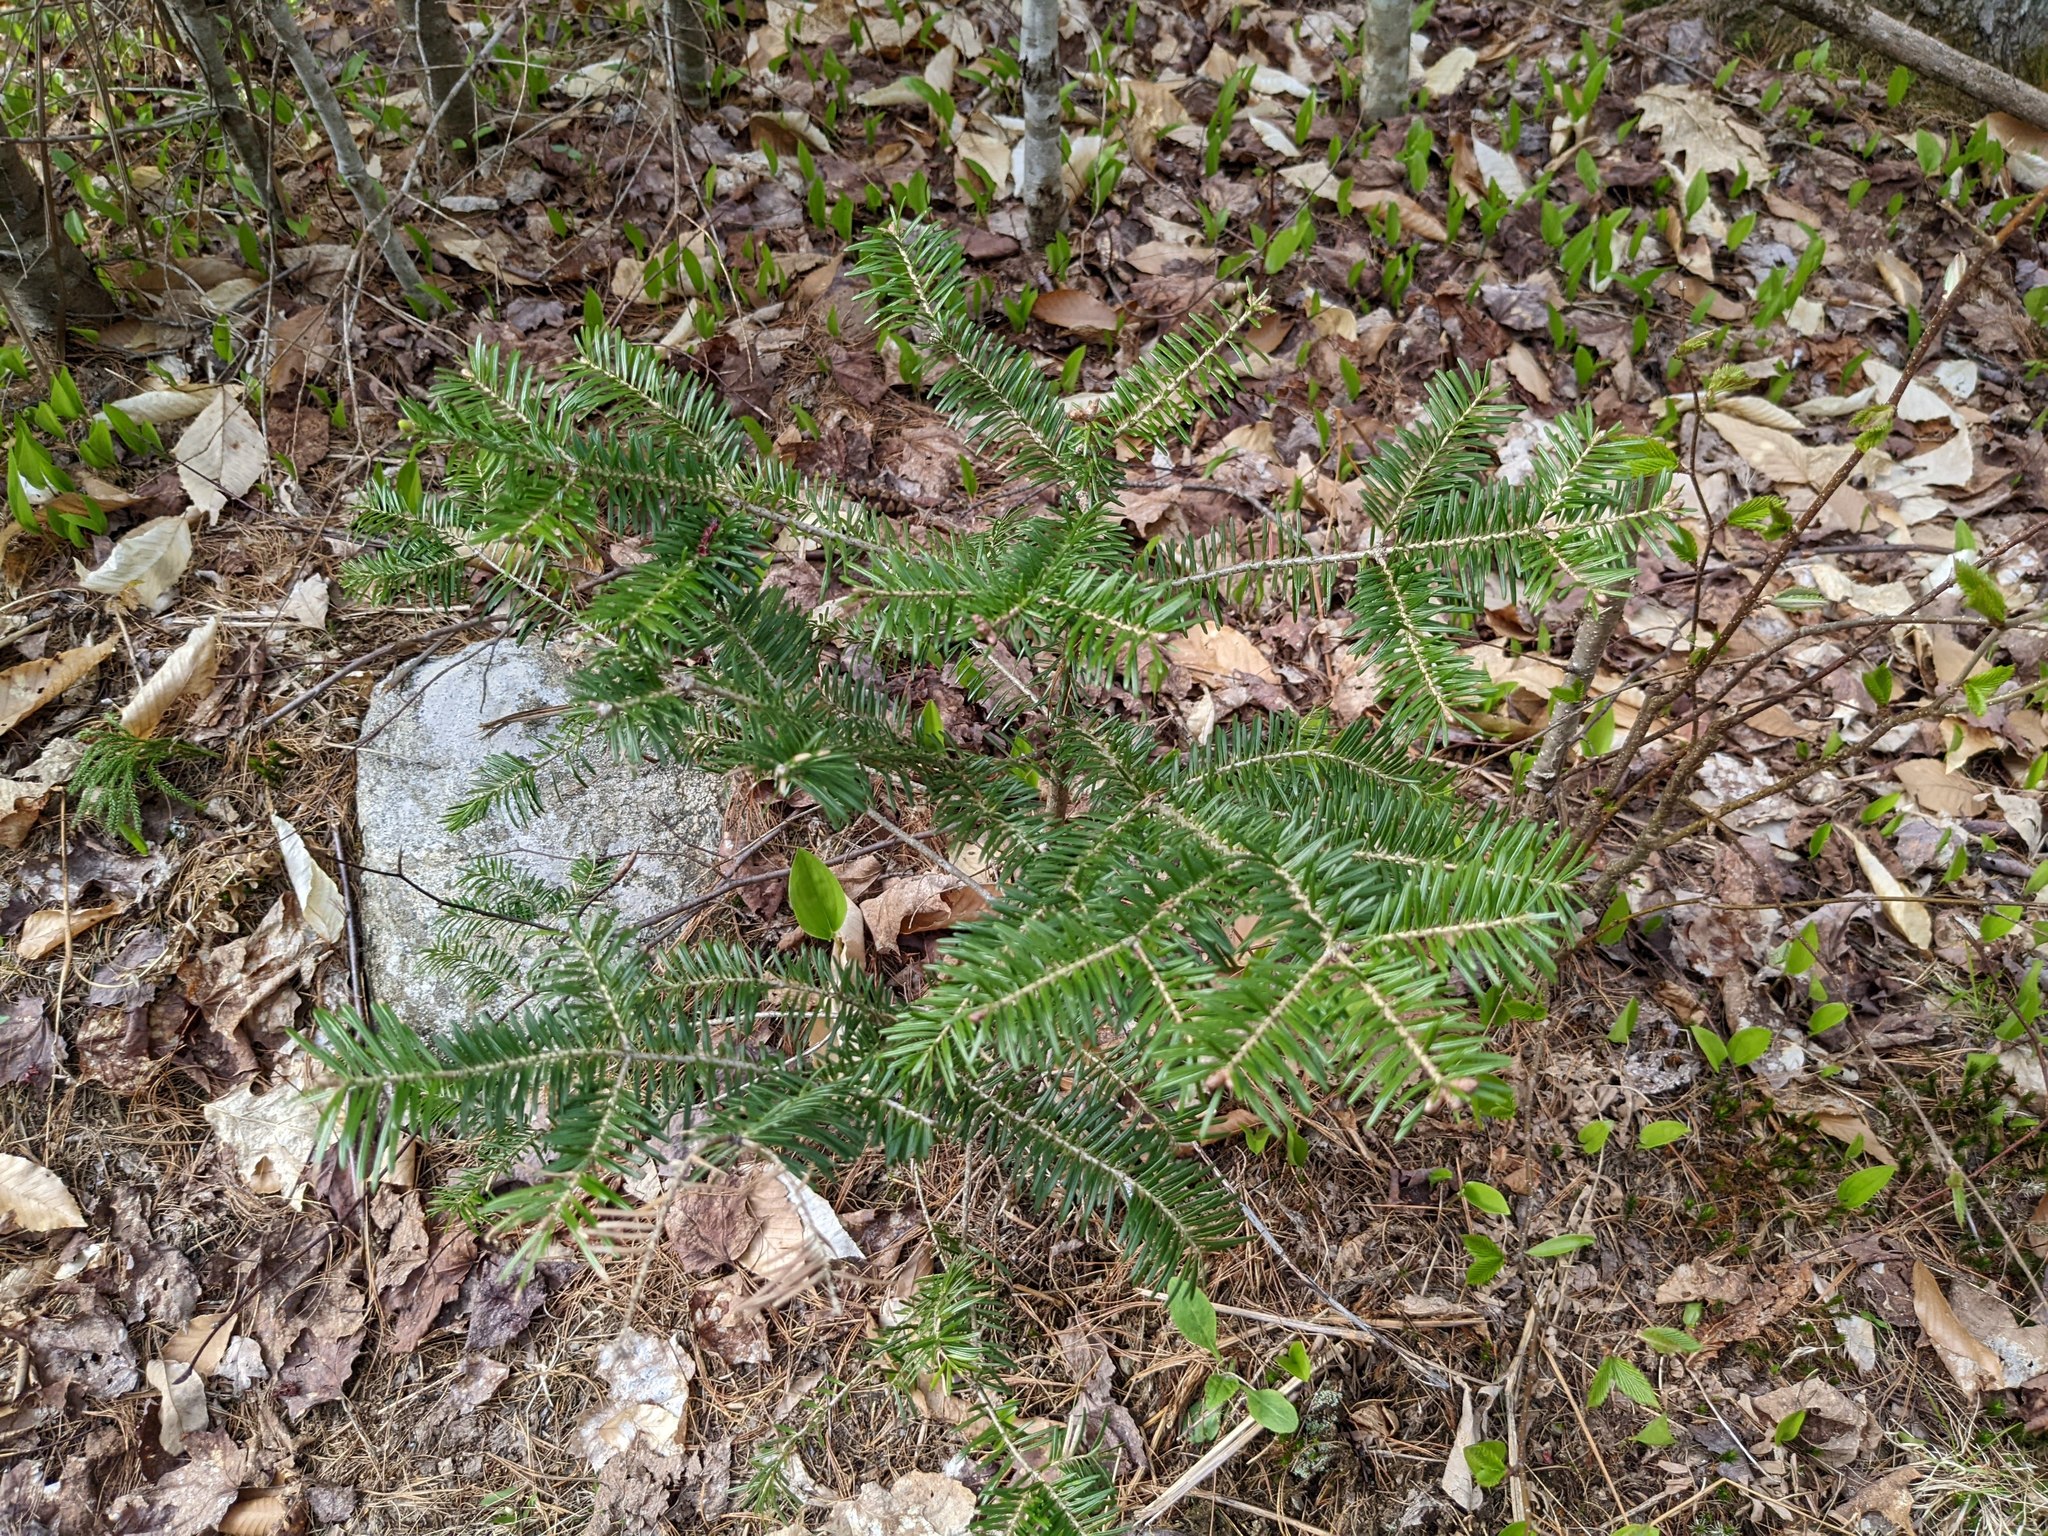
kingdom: Plantae
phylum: Tracheophyta
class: Pinopsida
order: Pinales
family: Pinaceae
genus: Abies
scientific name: Abies balsamea
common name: Balsam fir
